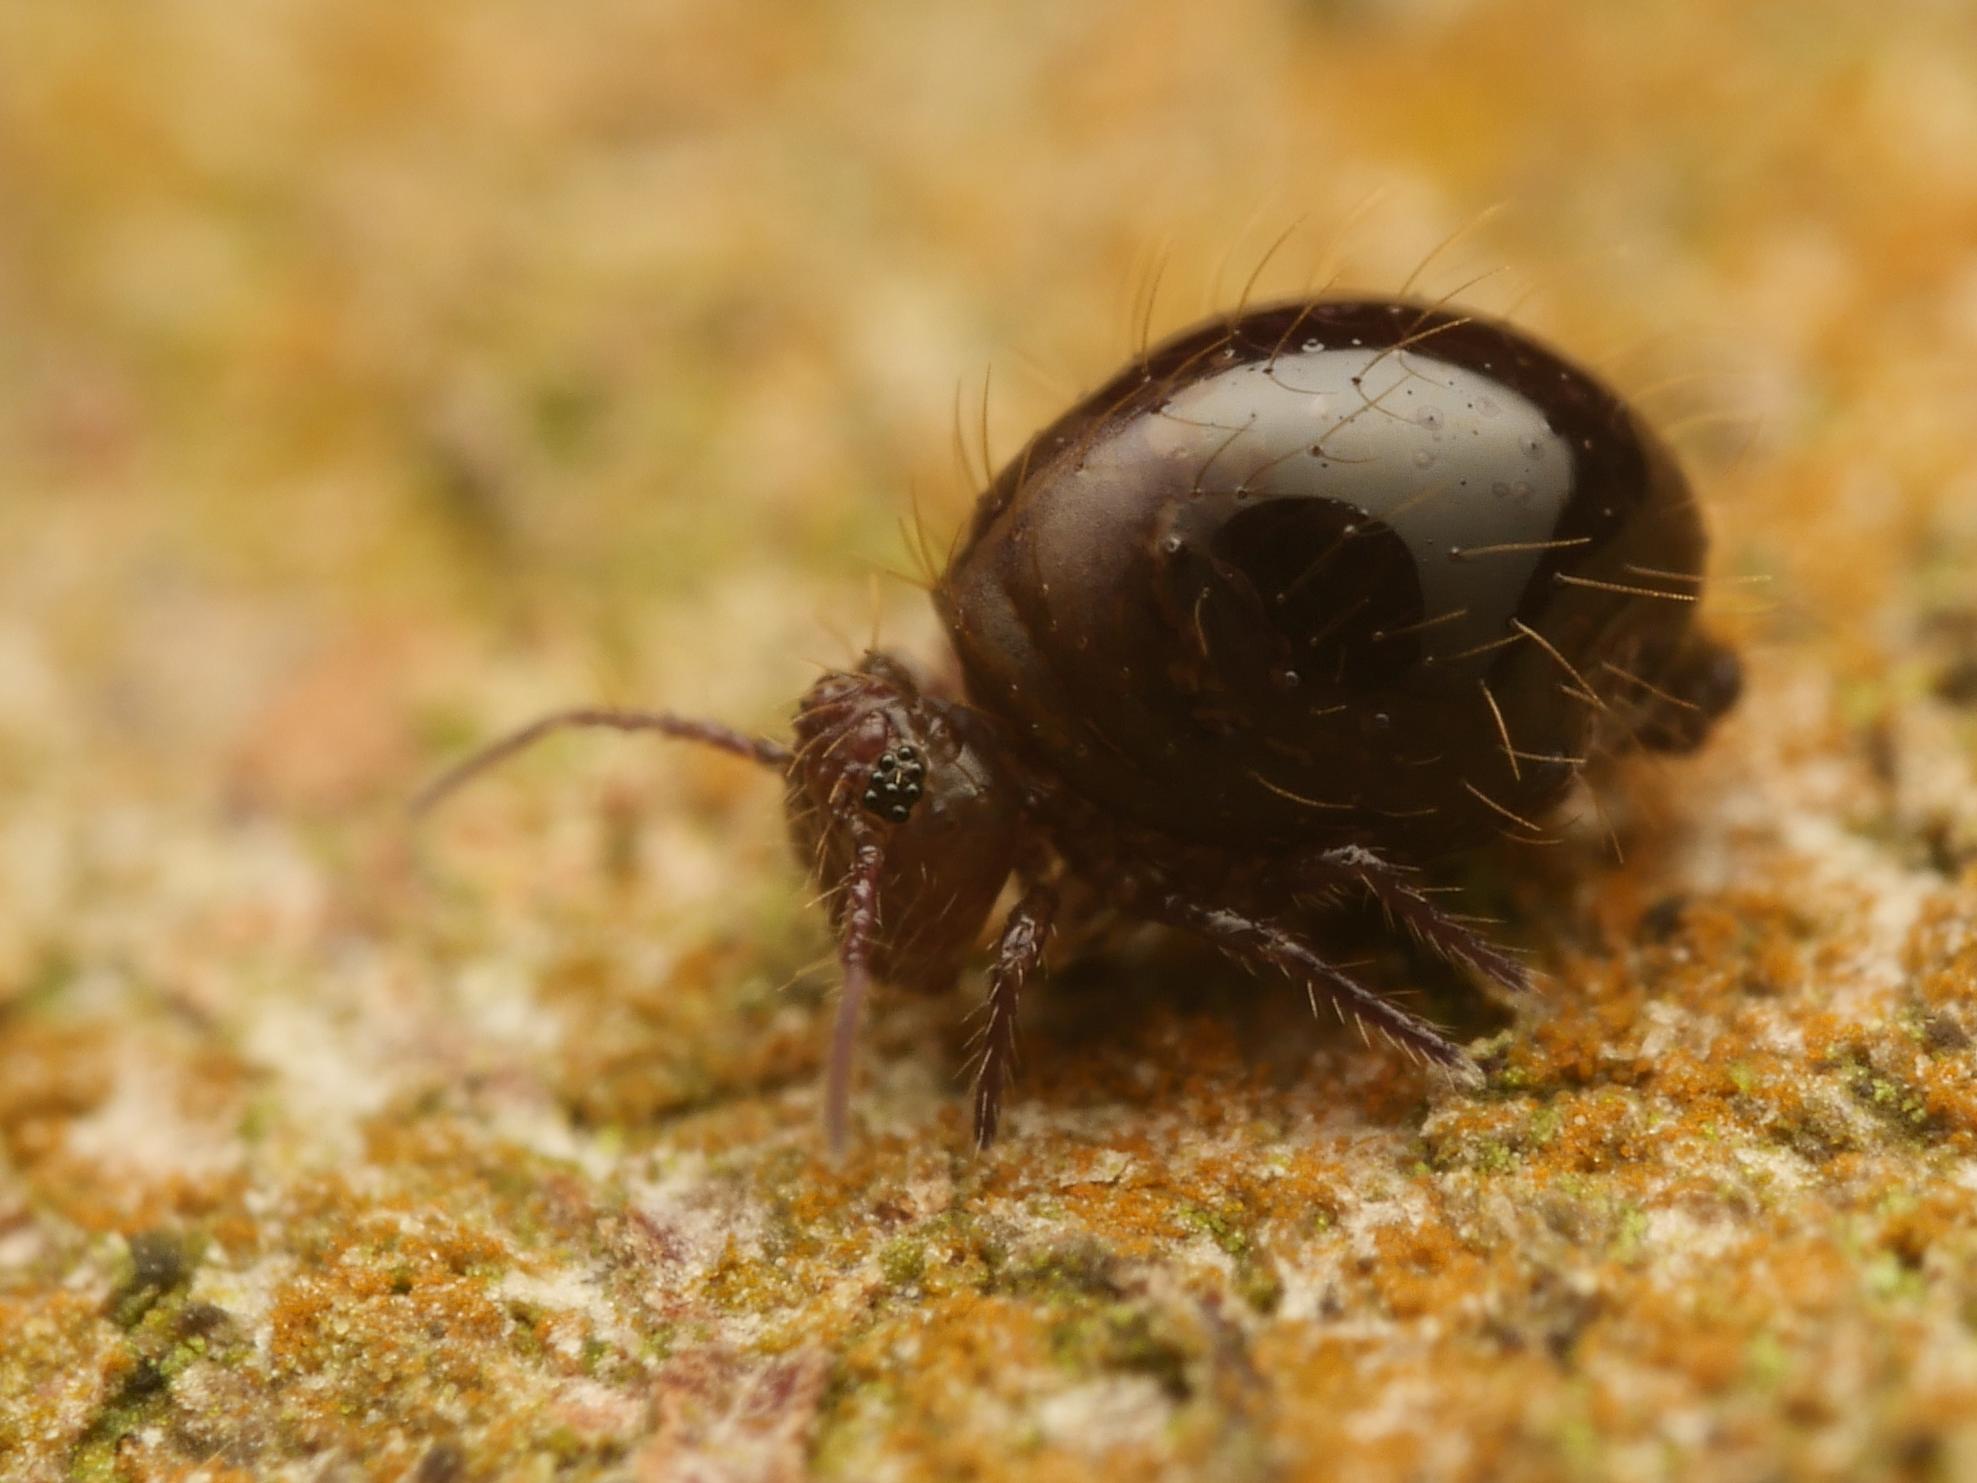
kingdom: Animalia
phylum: Arthropoda
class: Collembola
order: Symphypleona
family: Sminthuridae
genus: Allacma
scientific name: Allacma fusca
